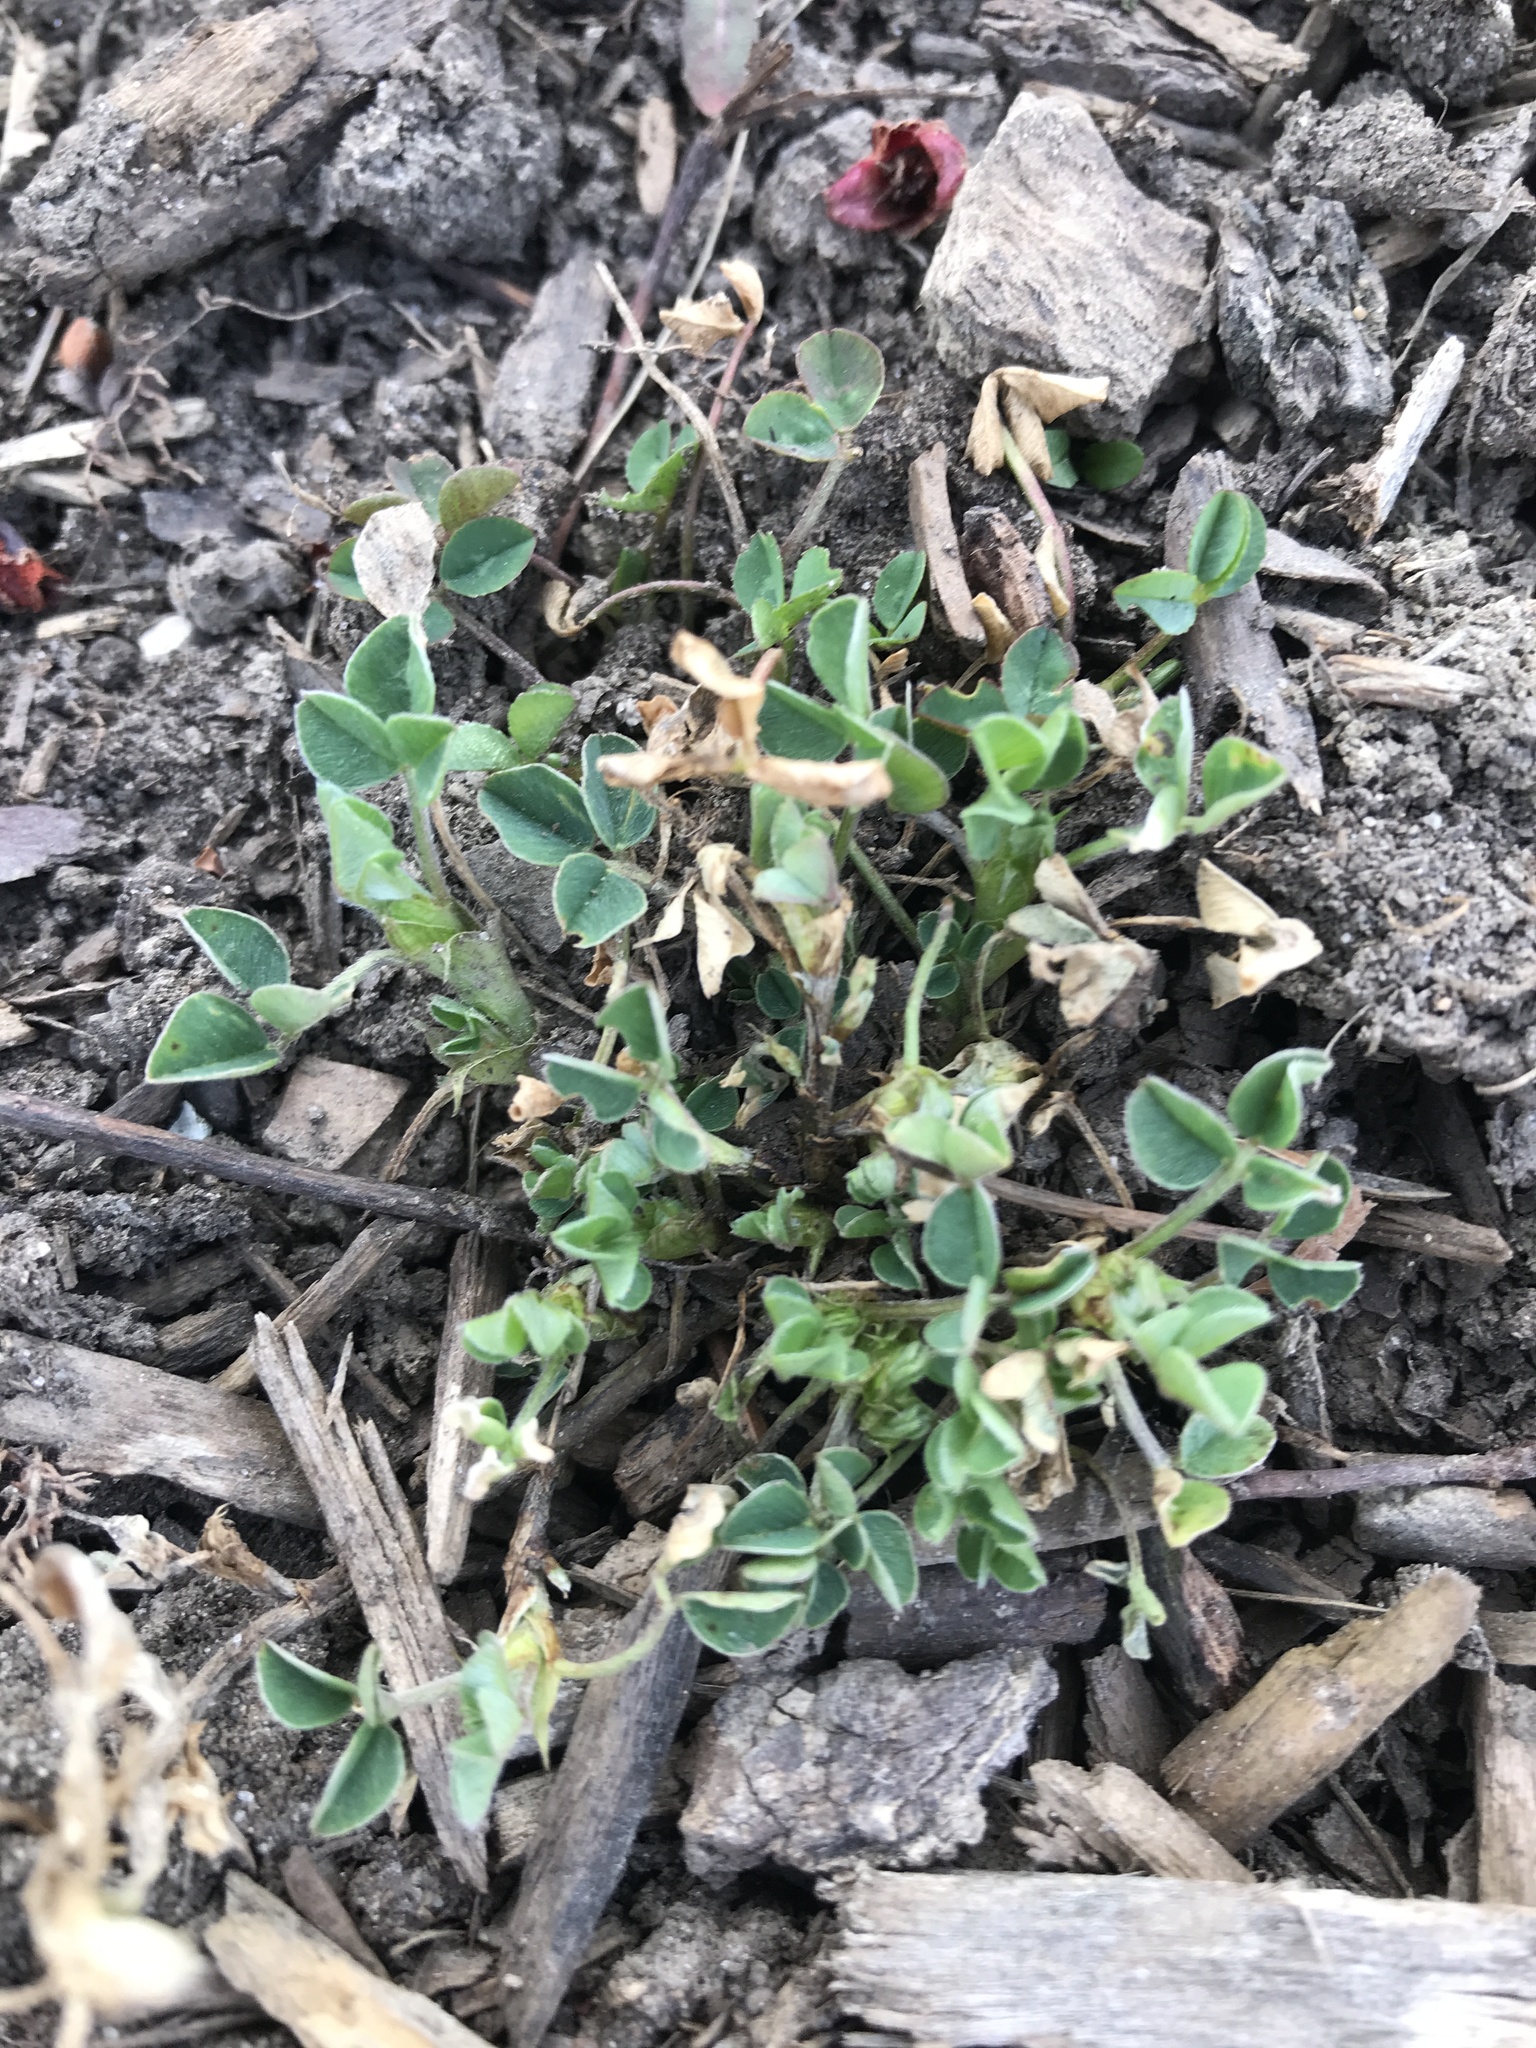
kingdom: Plantae
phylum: Tracheophyta
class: Magnoliopsida
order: Fabales
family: Fabaceae
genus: Medicago
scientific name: Medicago lupulina
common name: Black medick
